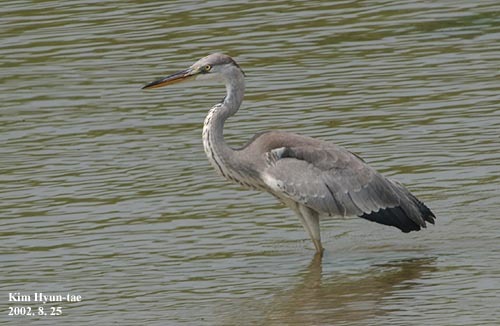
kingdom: Animalia
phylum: Chordata
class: Aves
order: Pelecaniformes
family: Ardeidae
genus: Ardea
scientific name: Ardea cinerea
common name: Grey heron
